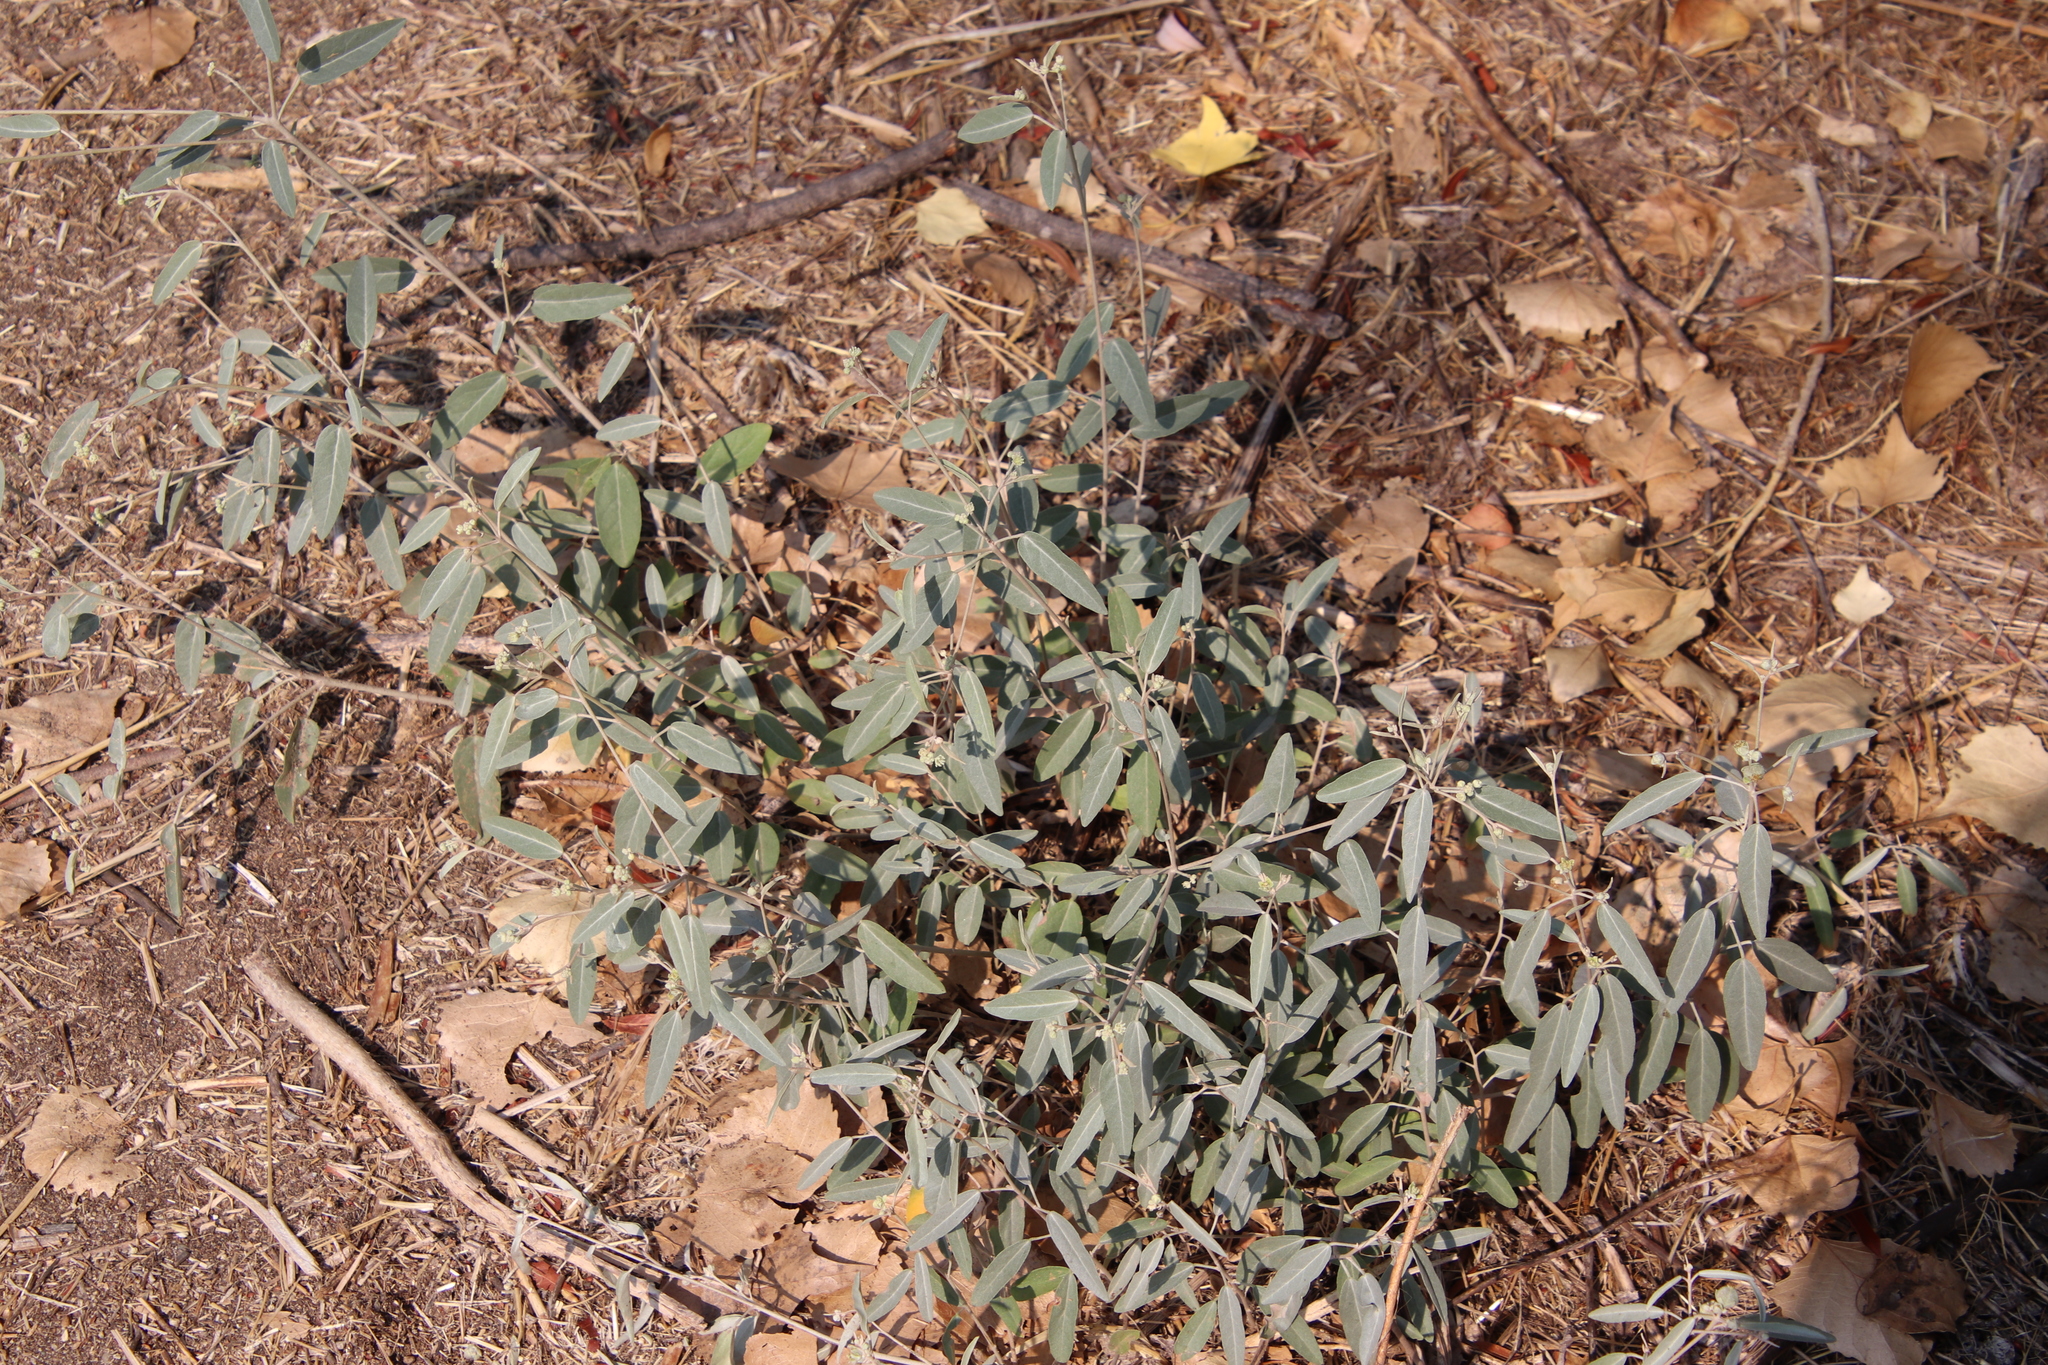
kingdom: Plantae
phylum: Tracheophyta
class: Magnoliopsida
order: Malpighiales
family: Euphorbiaceae
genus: Croton
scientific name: Croton californicus
